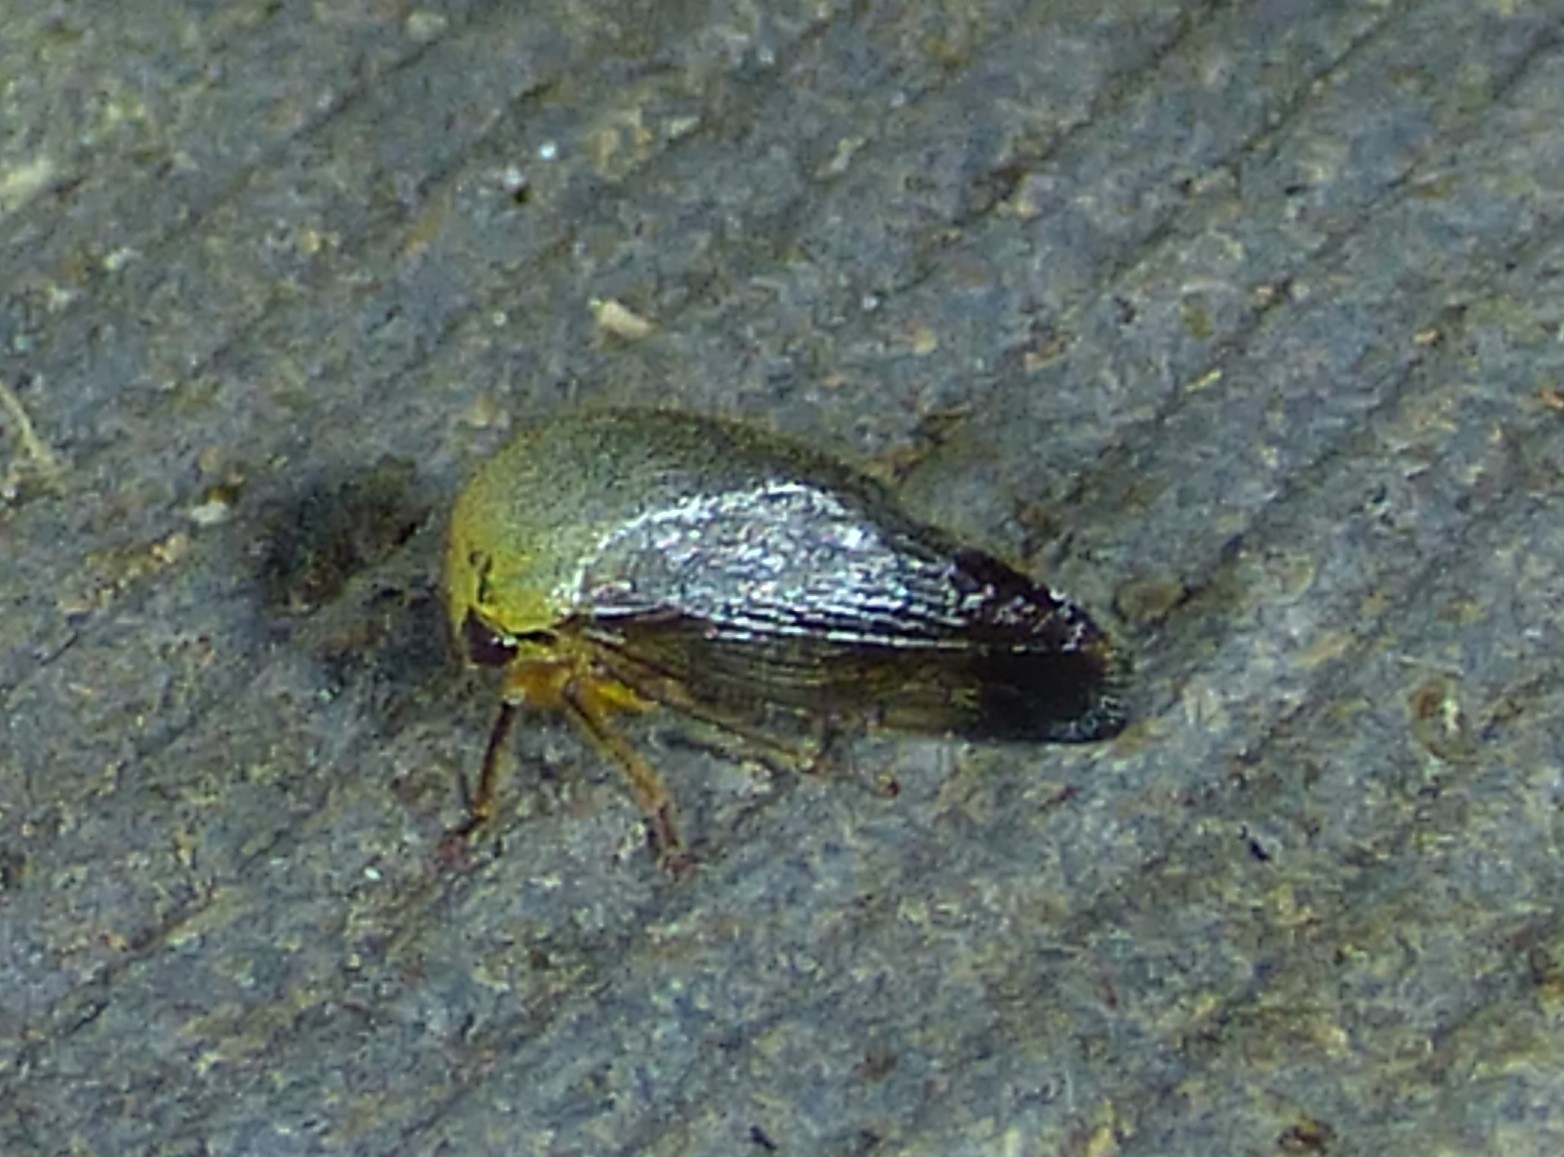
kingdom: Animalia
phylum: Arthropoda
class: Insecta
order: Hemiptera
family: Membracidae
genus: Carynota
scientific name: Carynota mera
